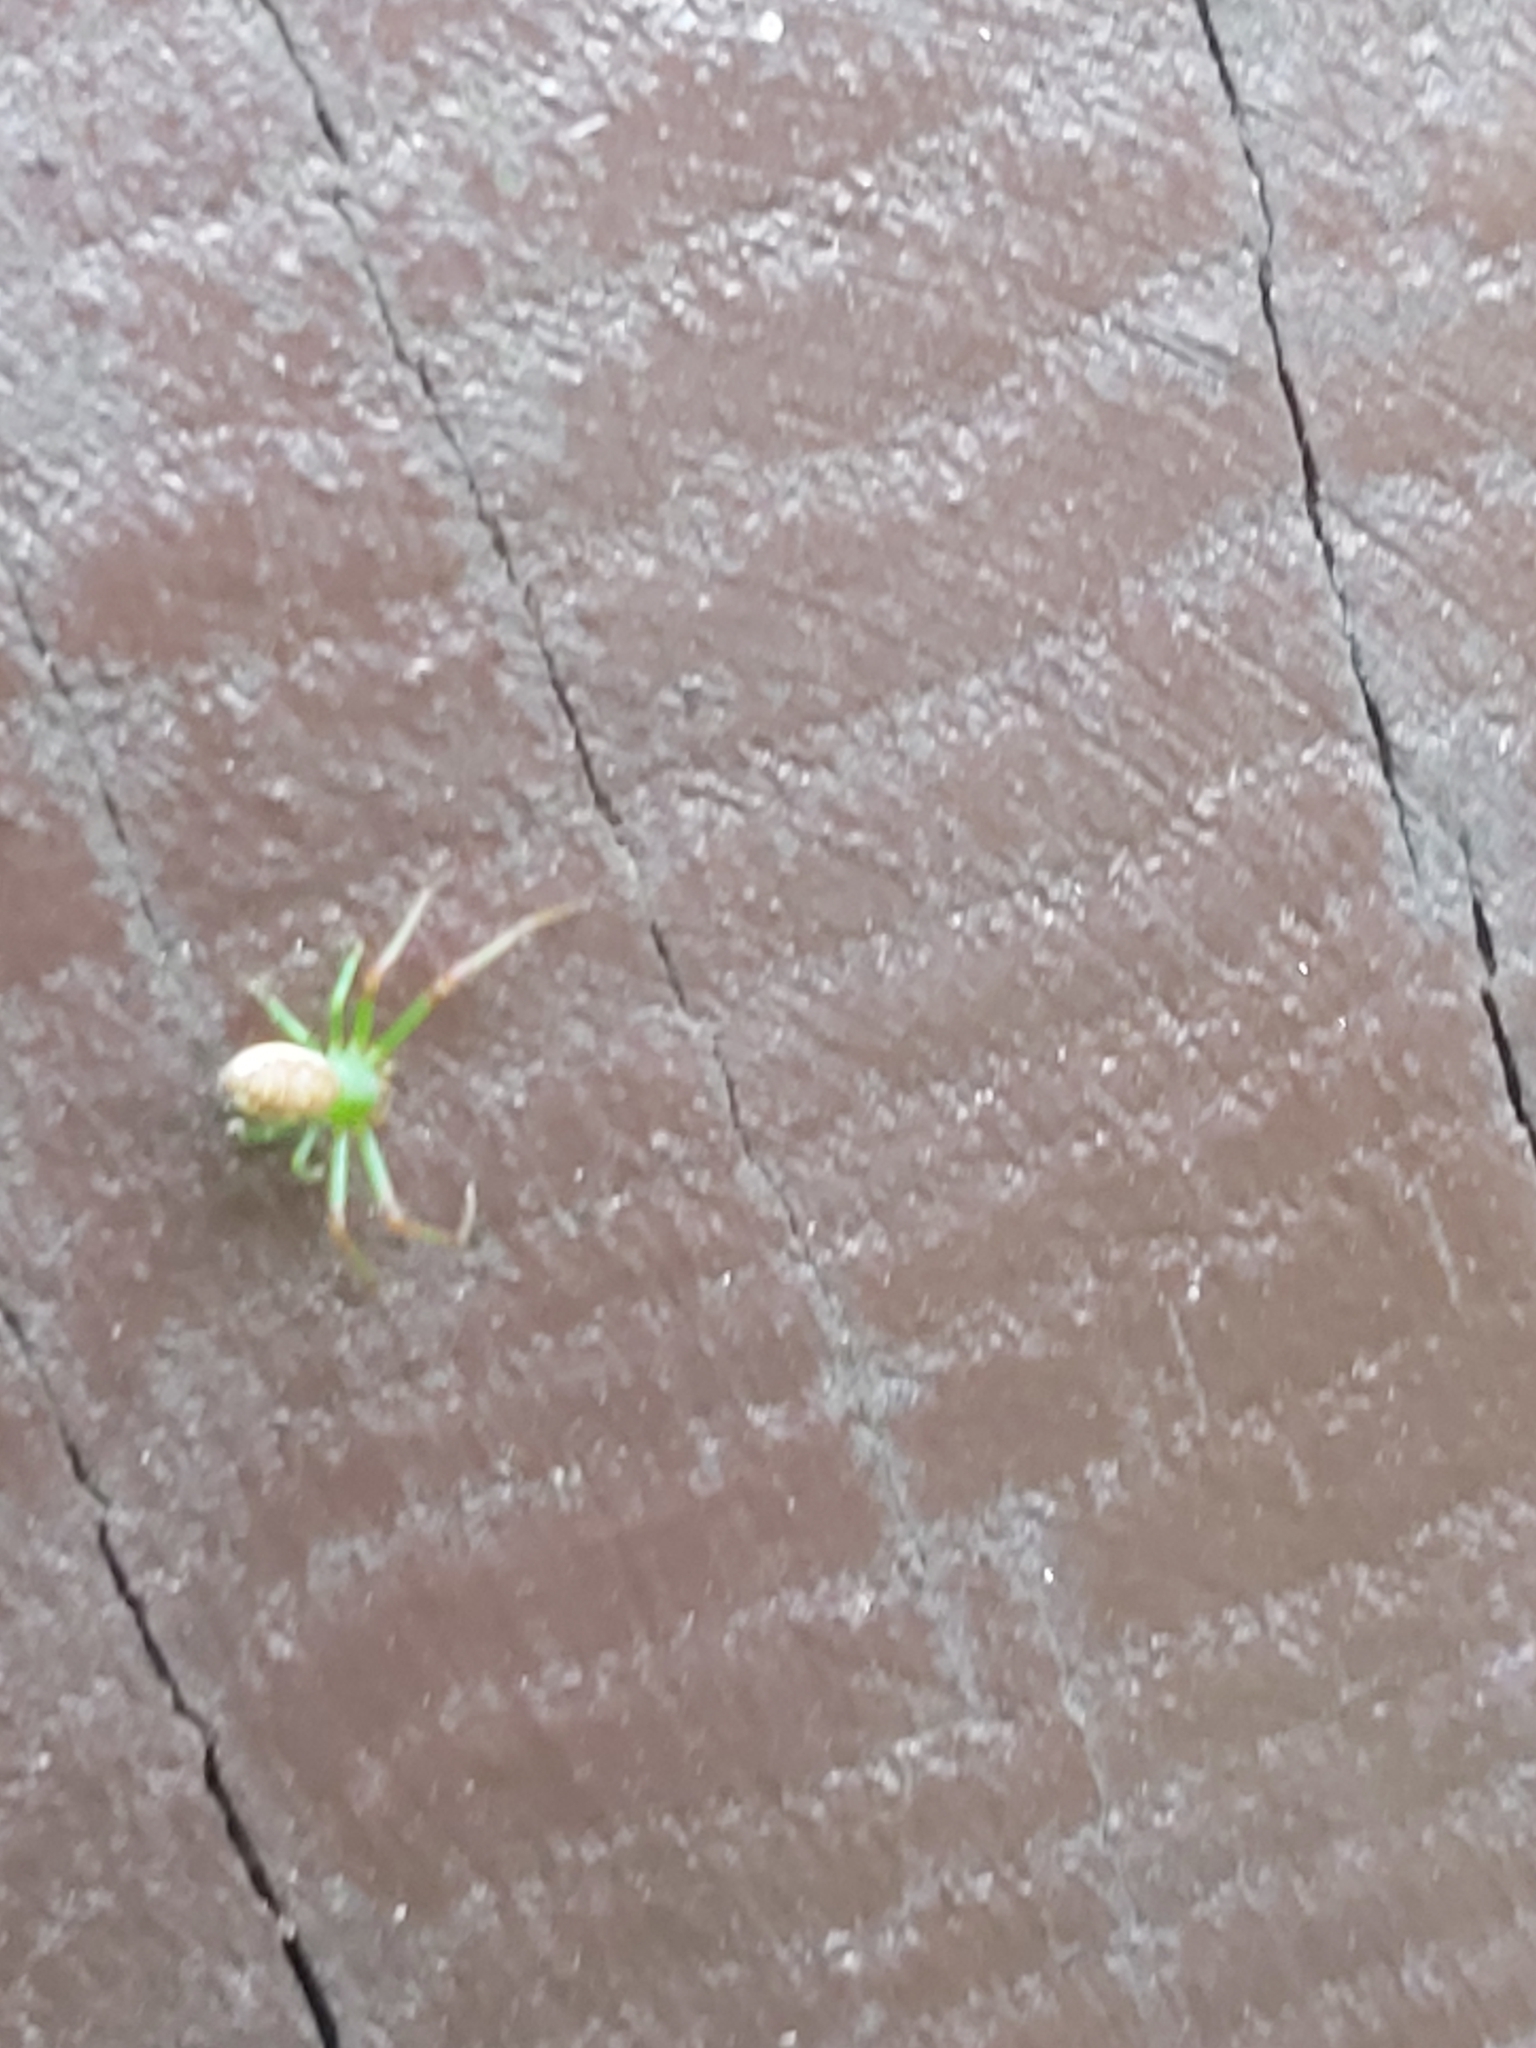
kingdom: Animalia
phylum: Arthropoda
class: Arachnida
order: Araneae
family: Thomisidae
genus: Diaea
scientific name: Diaea dorsata
